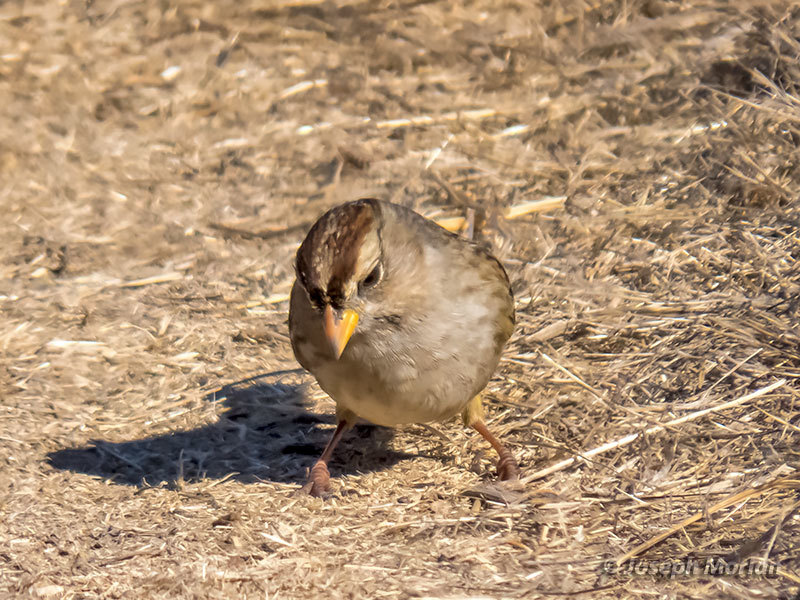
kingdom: Animalia
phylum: Chordata
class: Aves
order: Passeriformes
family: Passerellidae
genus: Zonotrichia
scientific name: Zonotrichia leucophrys
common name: White-crowned sparrow
